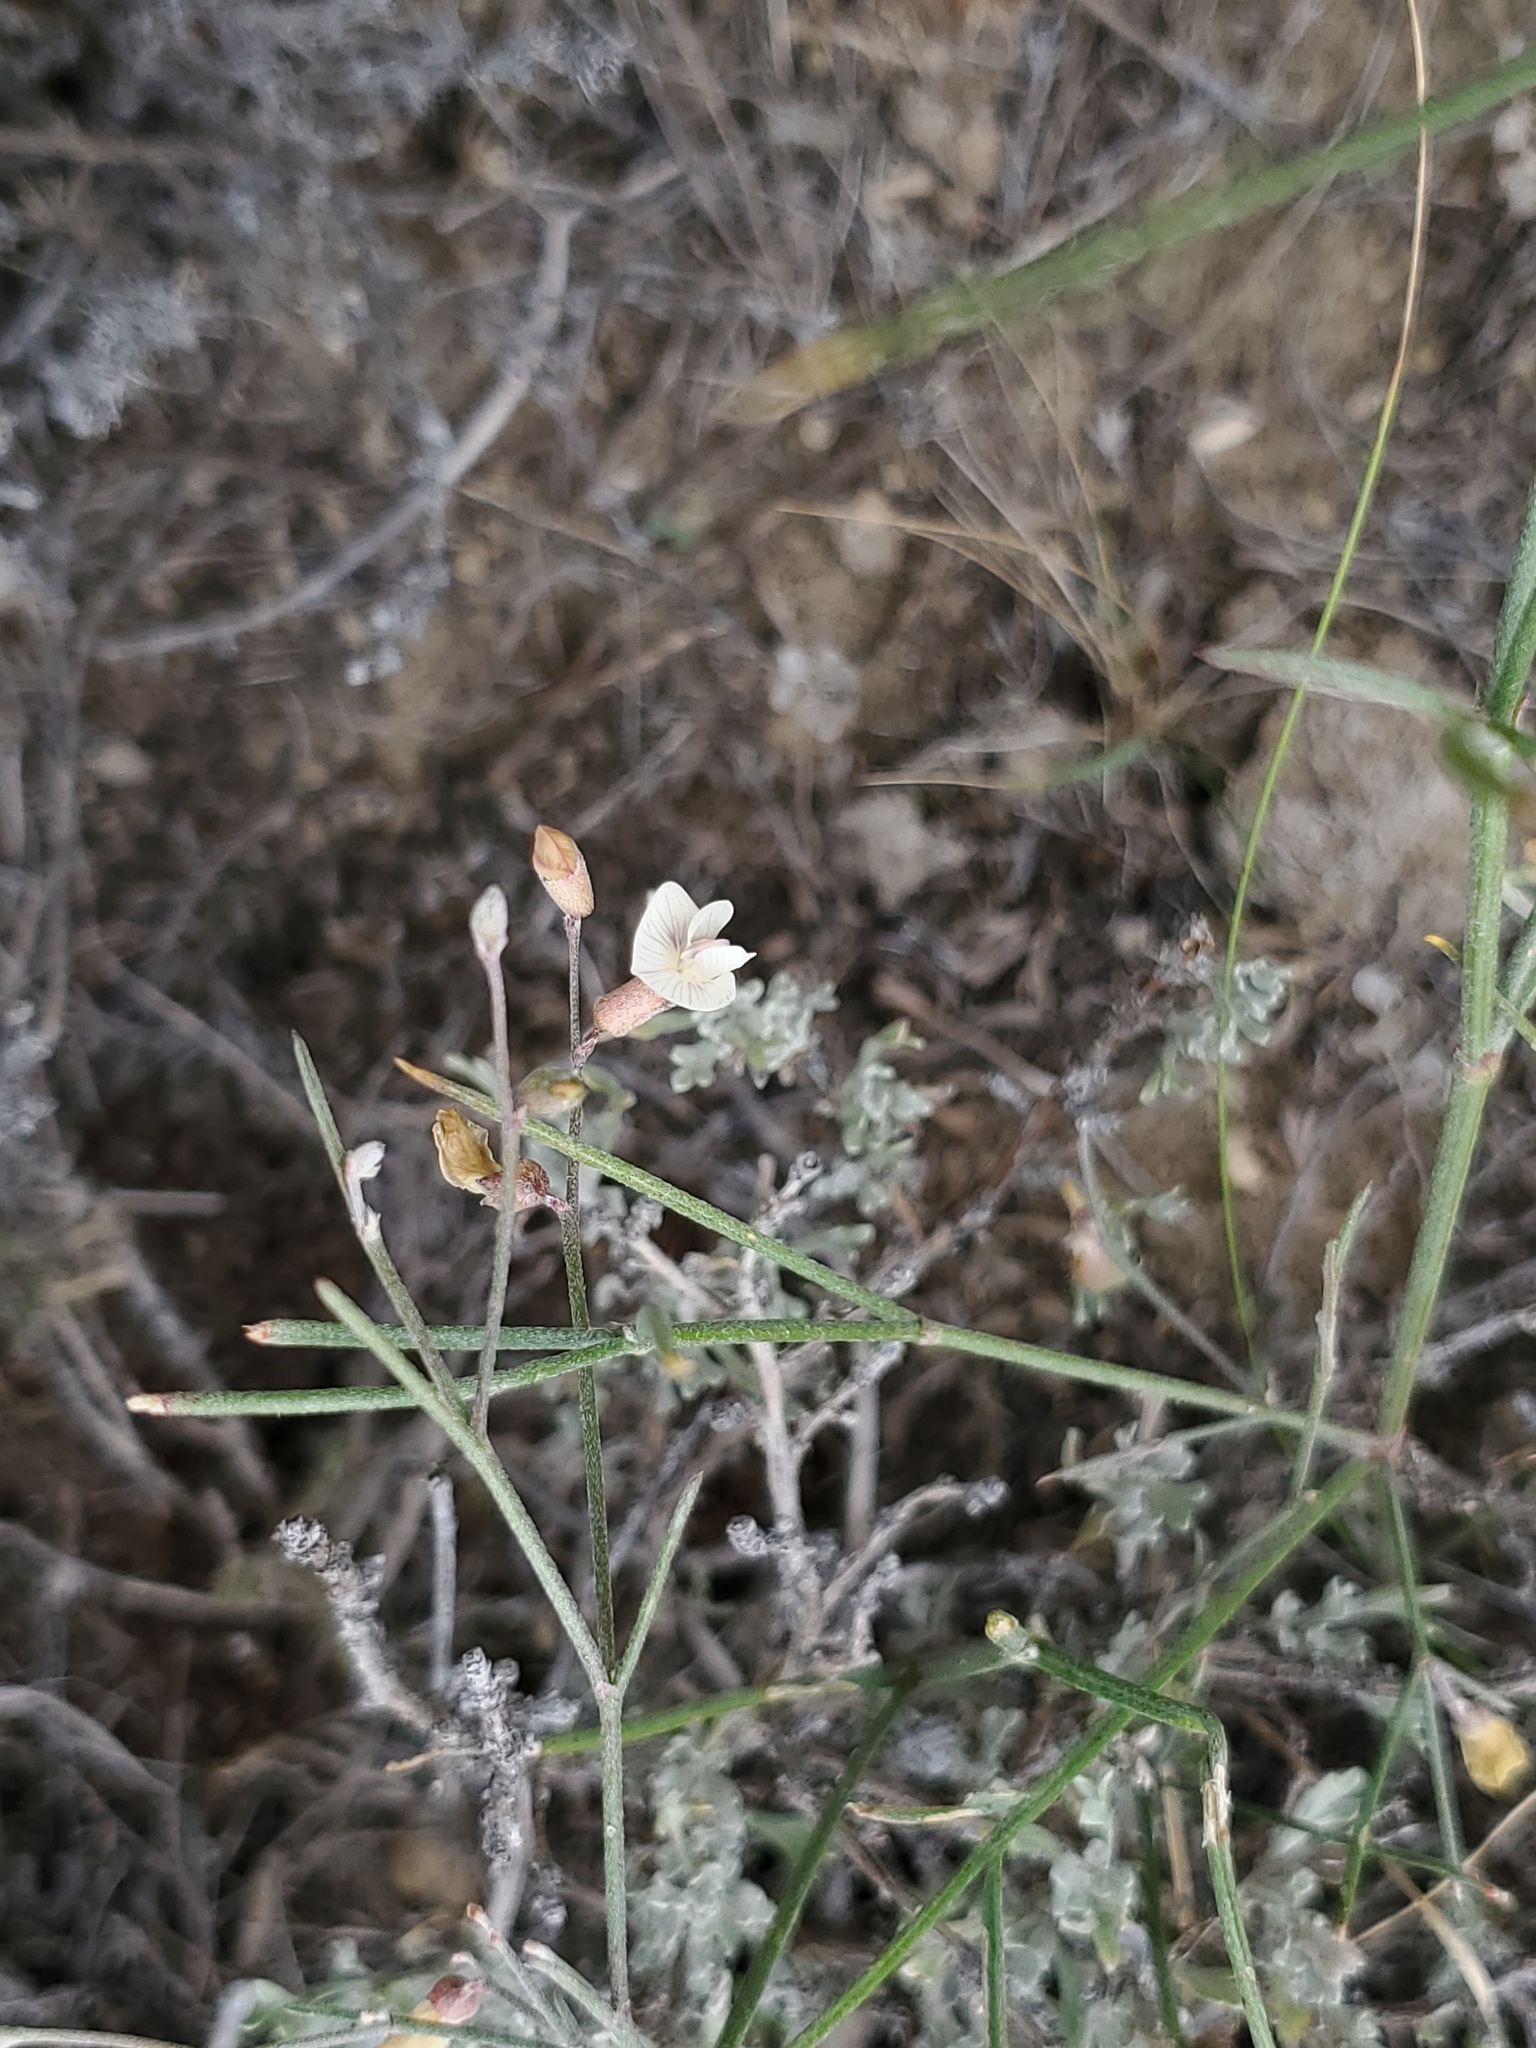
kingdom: Plantae
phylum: Tracheophyta
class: Magnoliopsida
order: Fabales
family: Fabaceae
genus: Astragalus
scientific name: Astragalus convallarius
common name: Lesser rushy milk-vetch
